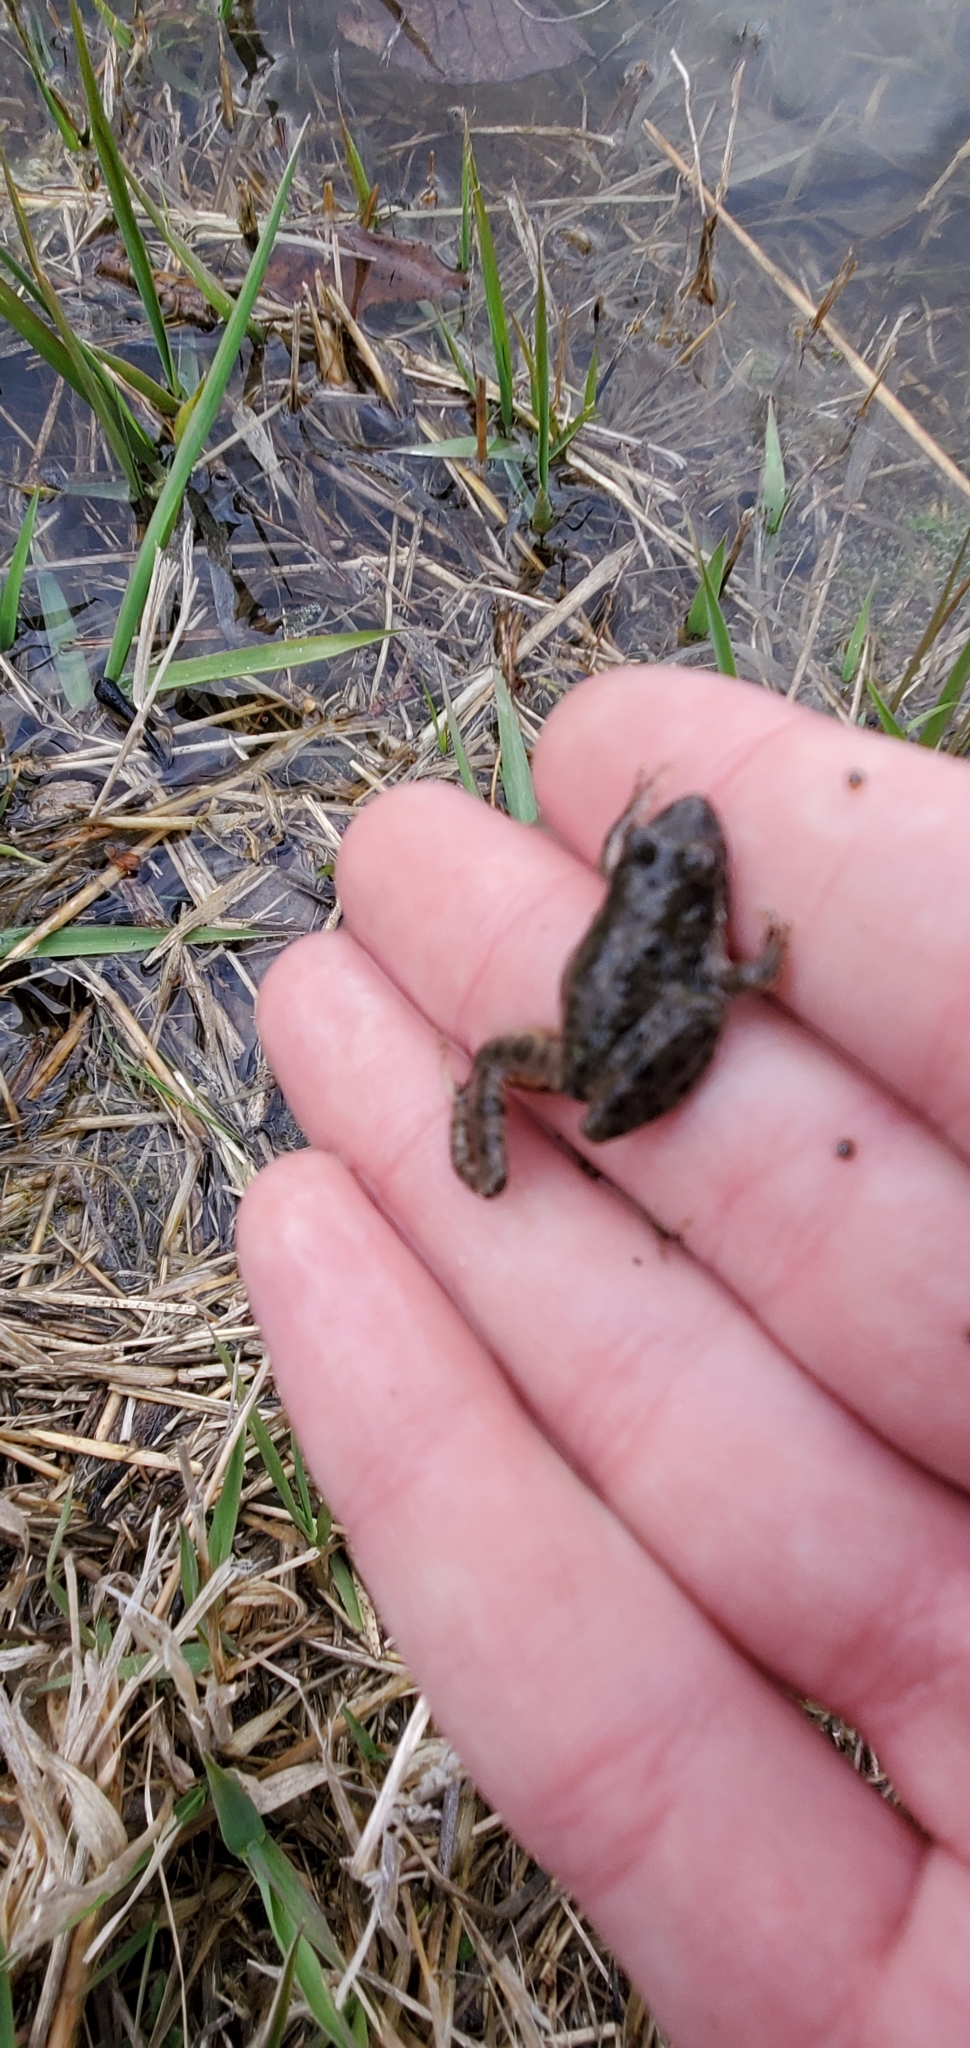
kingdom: Animalia
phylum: Chordata
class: Amphibia
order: Anura
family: Hylidae
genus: Acris
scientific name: Acris blanchardi
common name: Blanchard's cricket frog
